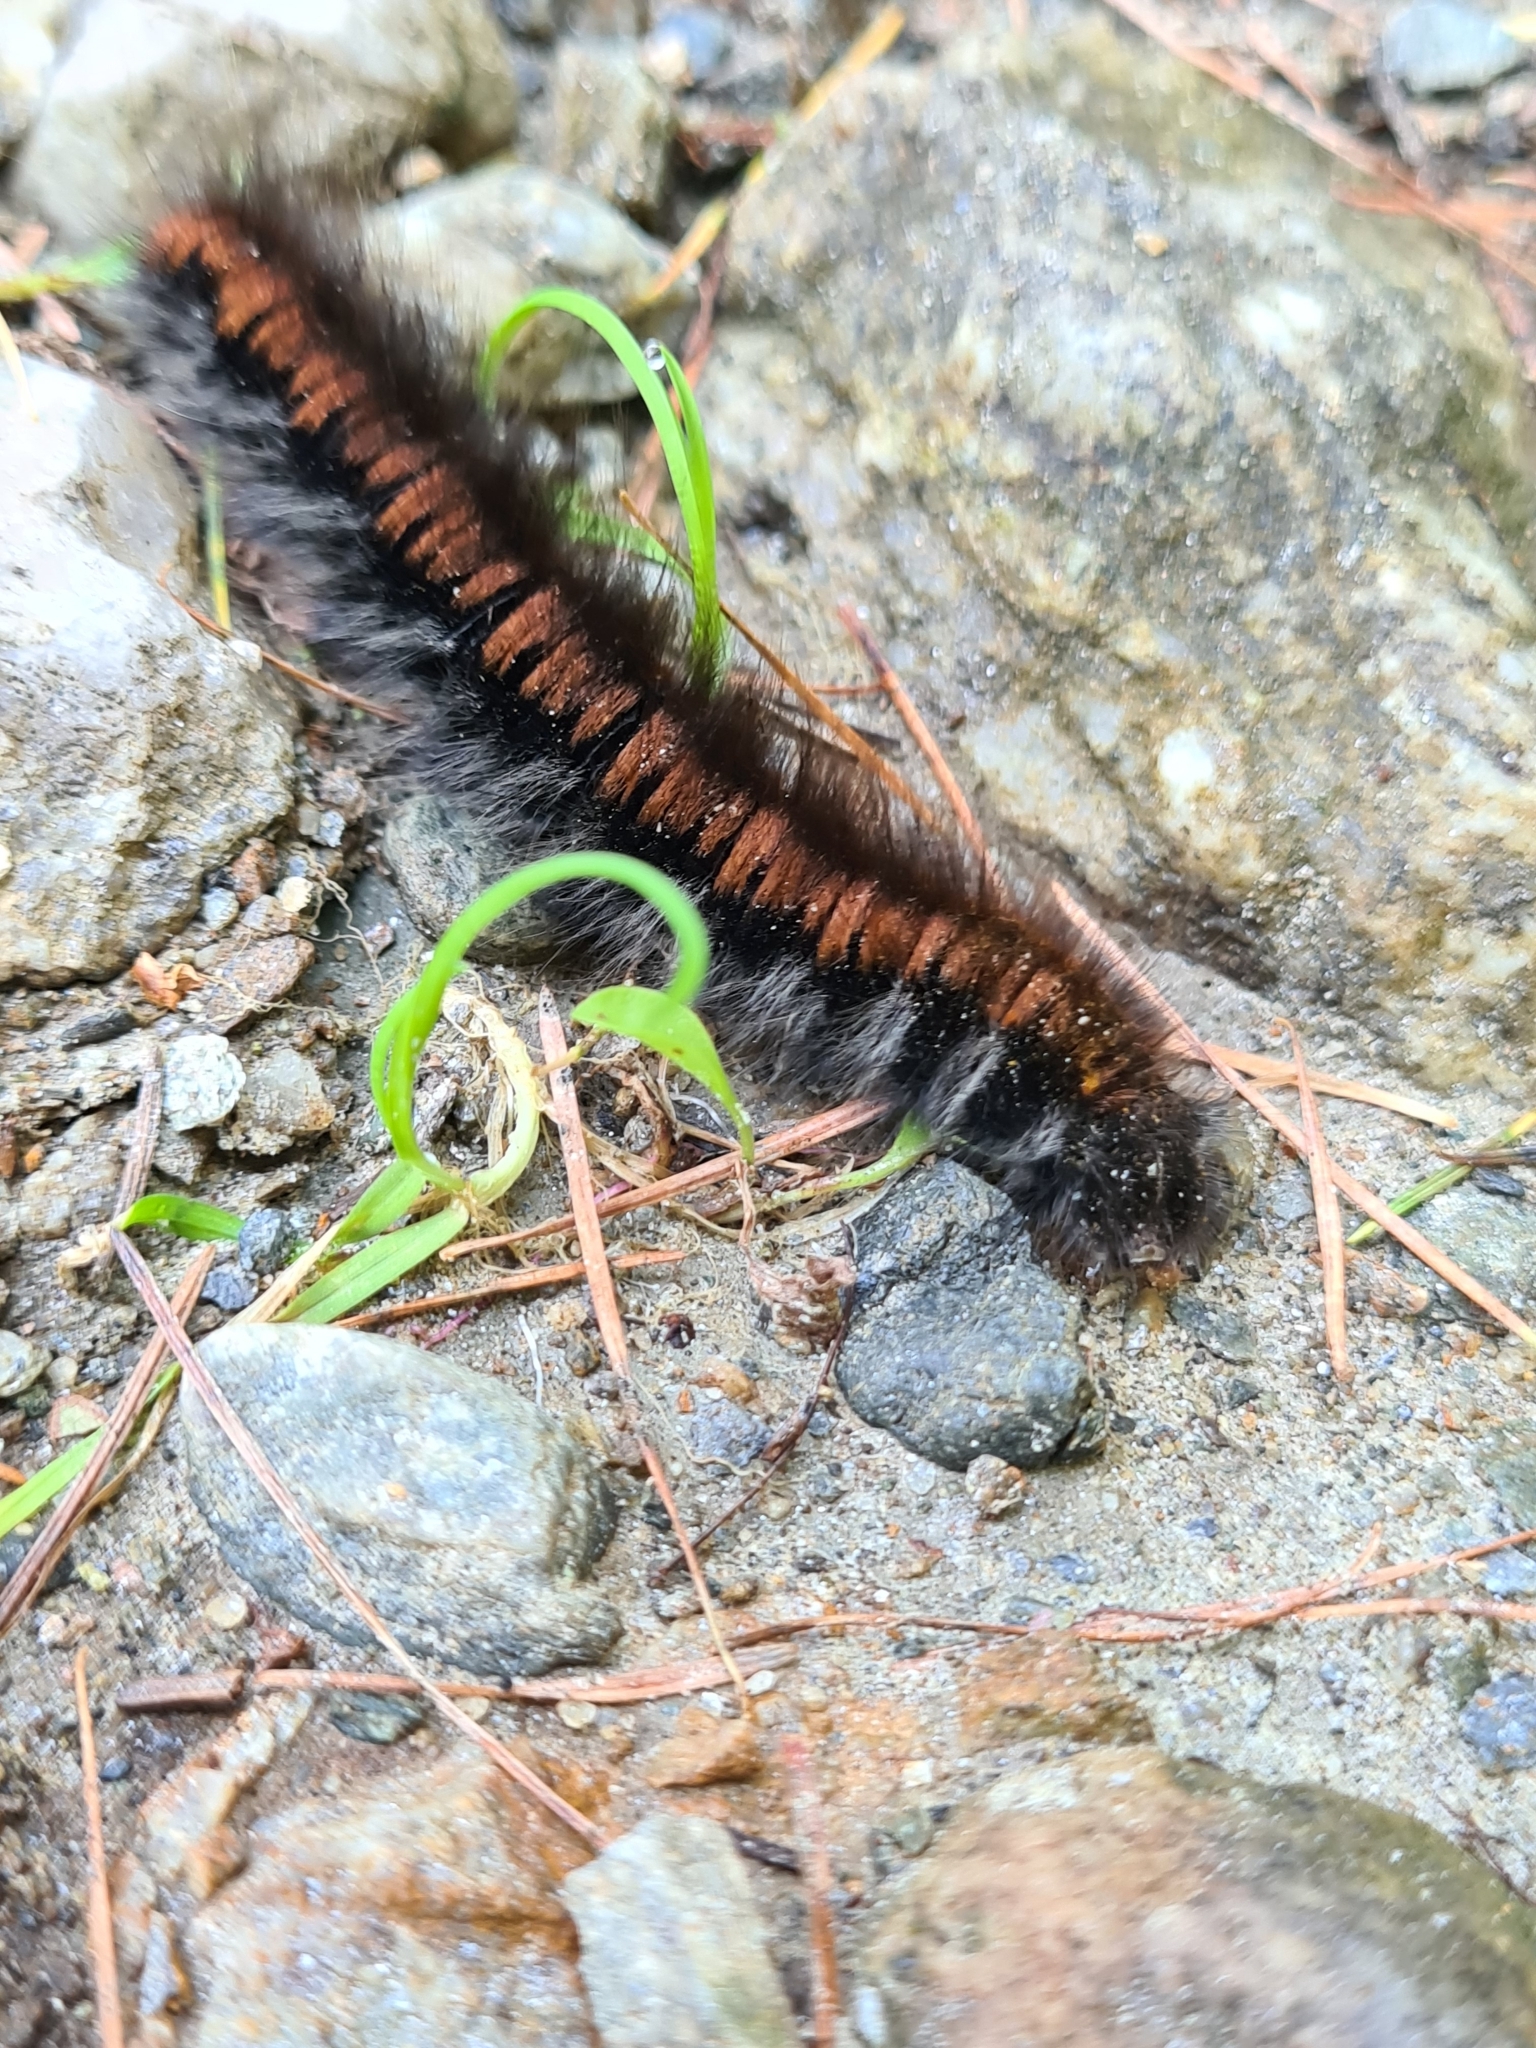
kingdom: Animalia
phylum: Arthropoda
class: Insecta
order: Lepidoptera
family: Lasiocampidae
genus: Macrothylacia
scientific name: Macrothylacia rubi
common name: Fox moth
